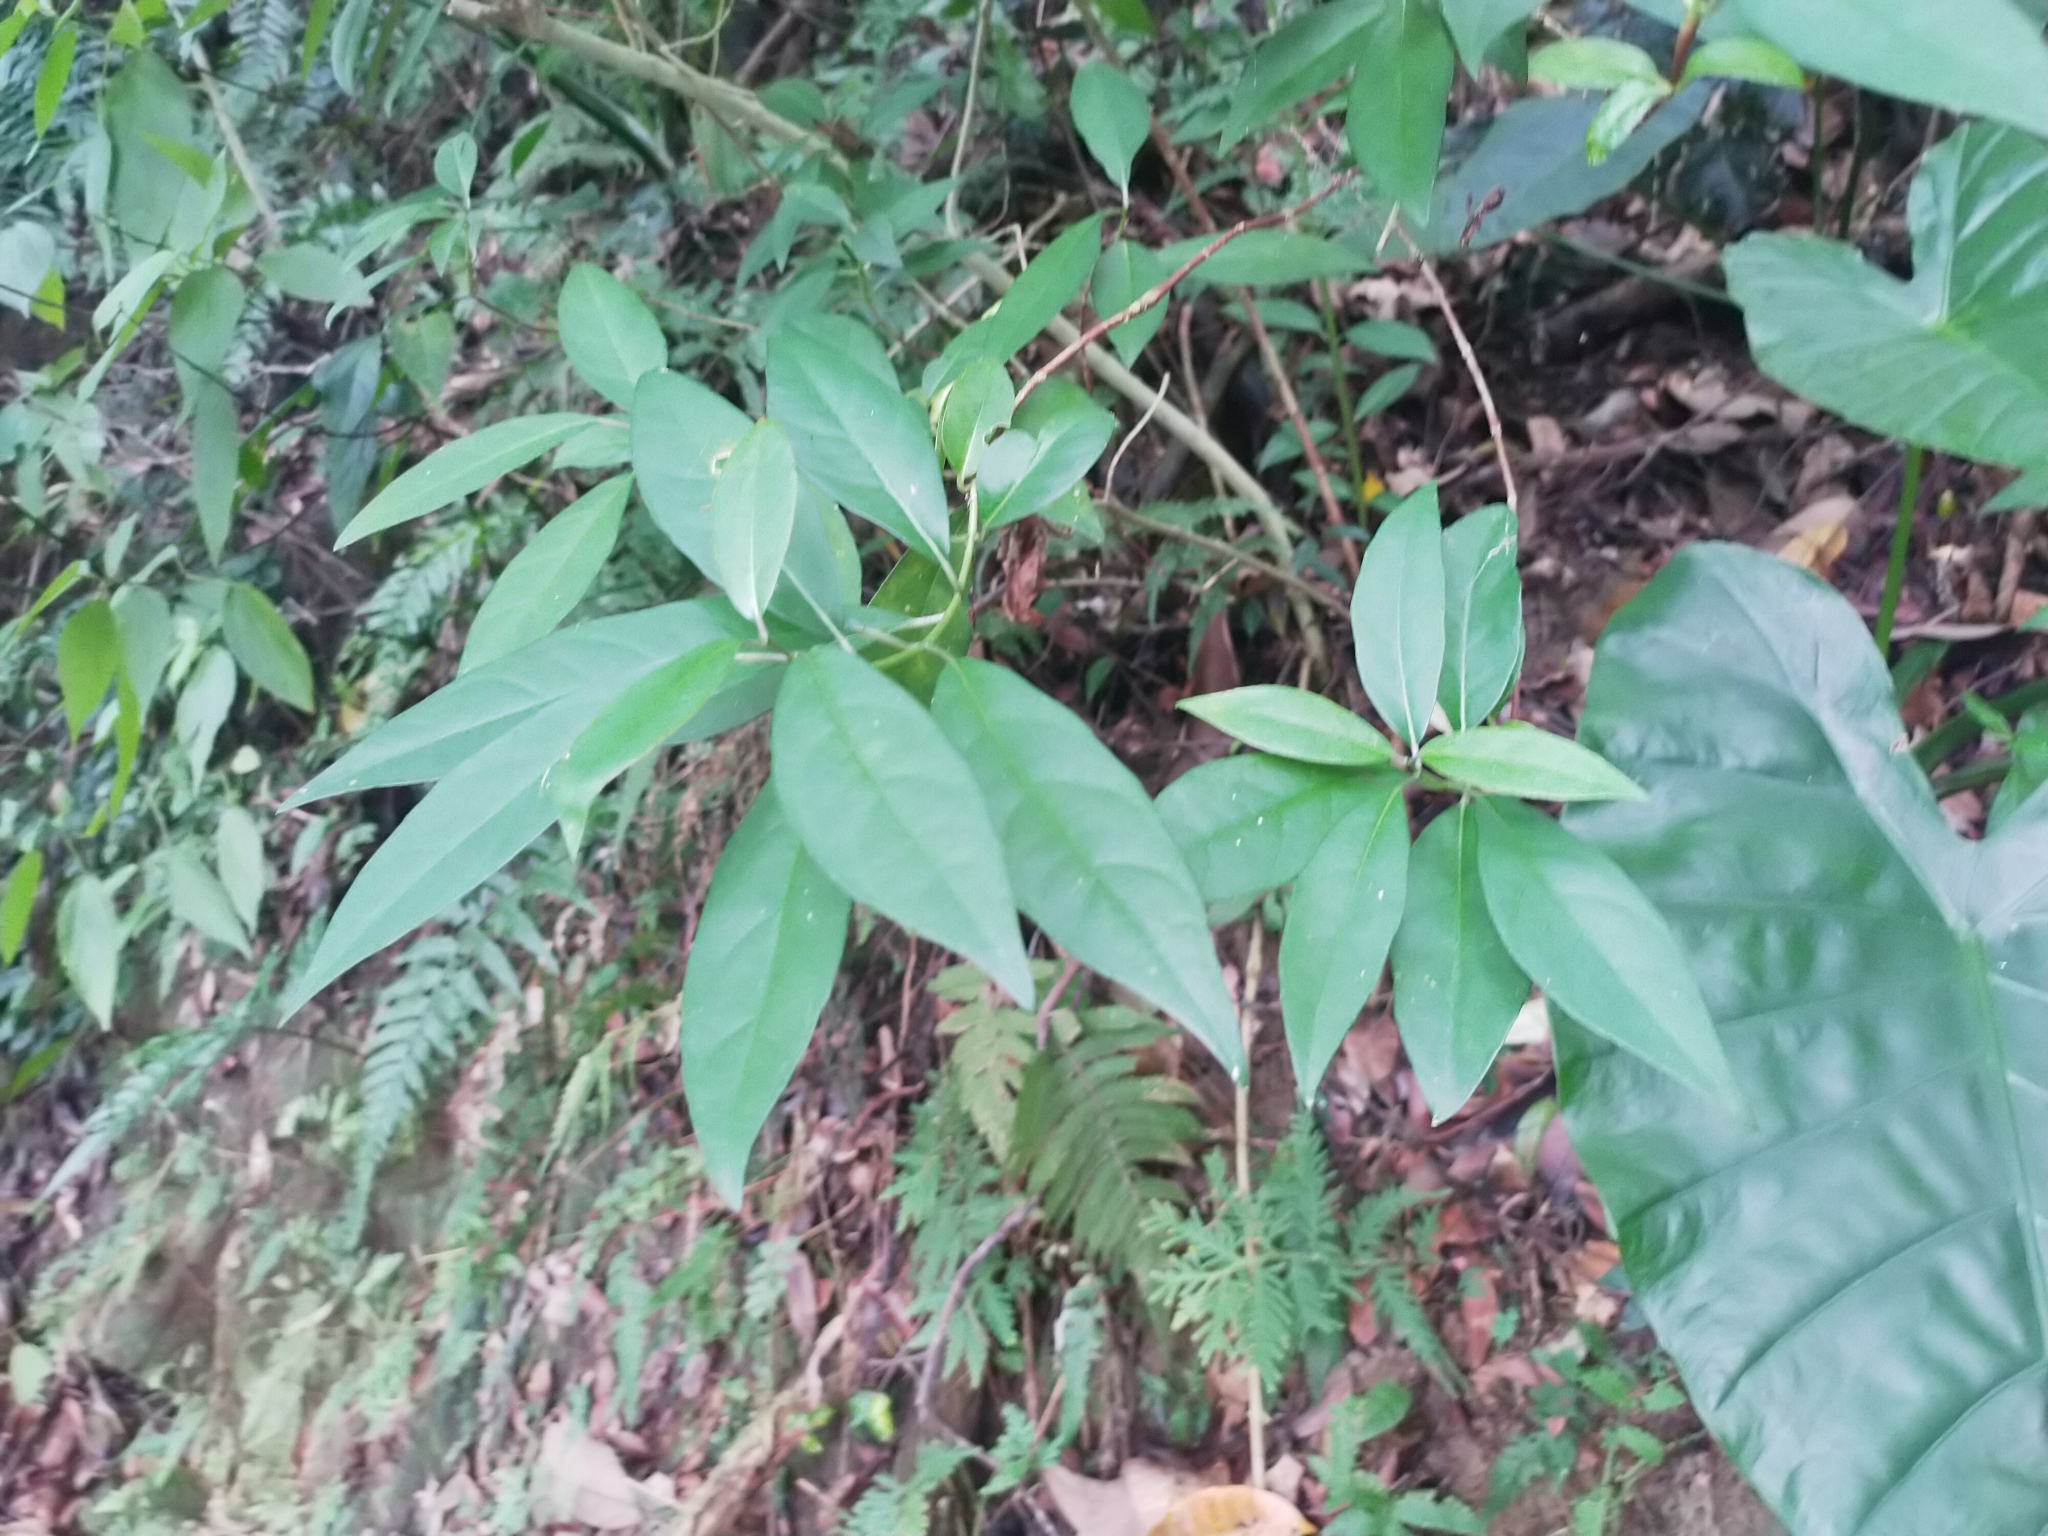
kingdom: Plantae
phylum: Tracheophyta
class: Magnoliopsida
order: Cornales
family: Hydrangeaceae
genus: Hydrangea
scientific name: Hydrangea chinensis
